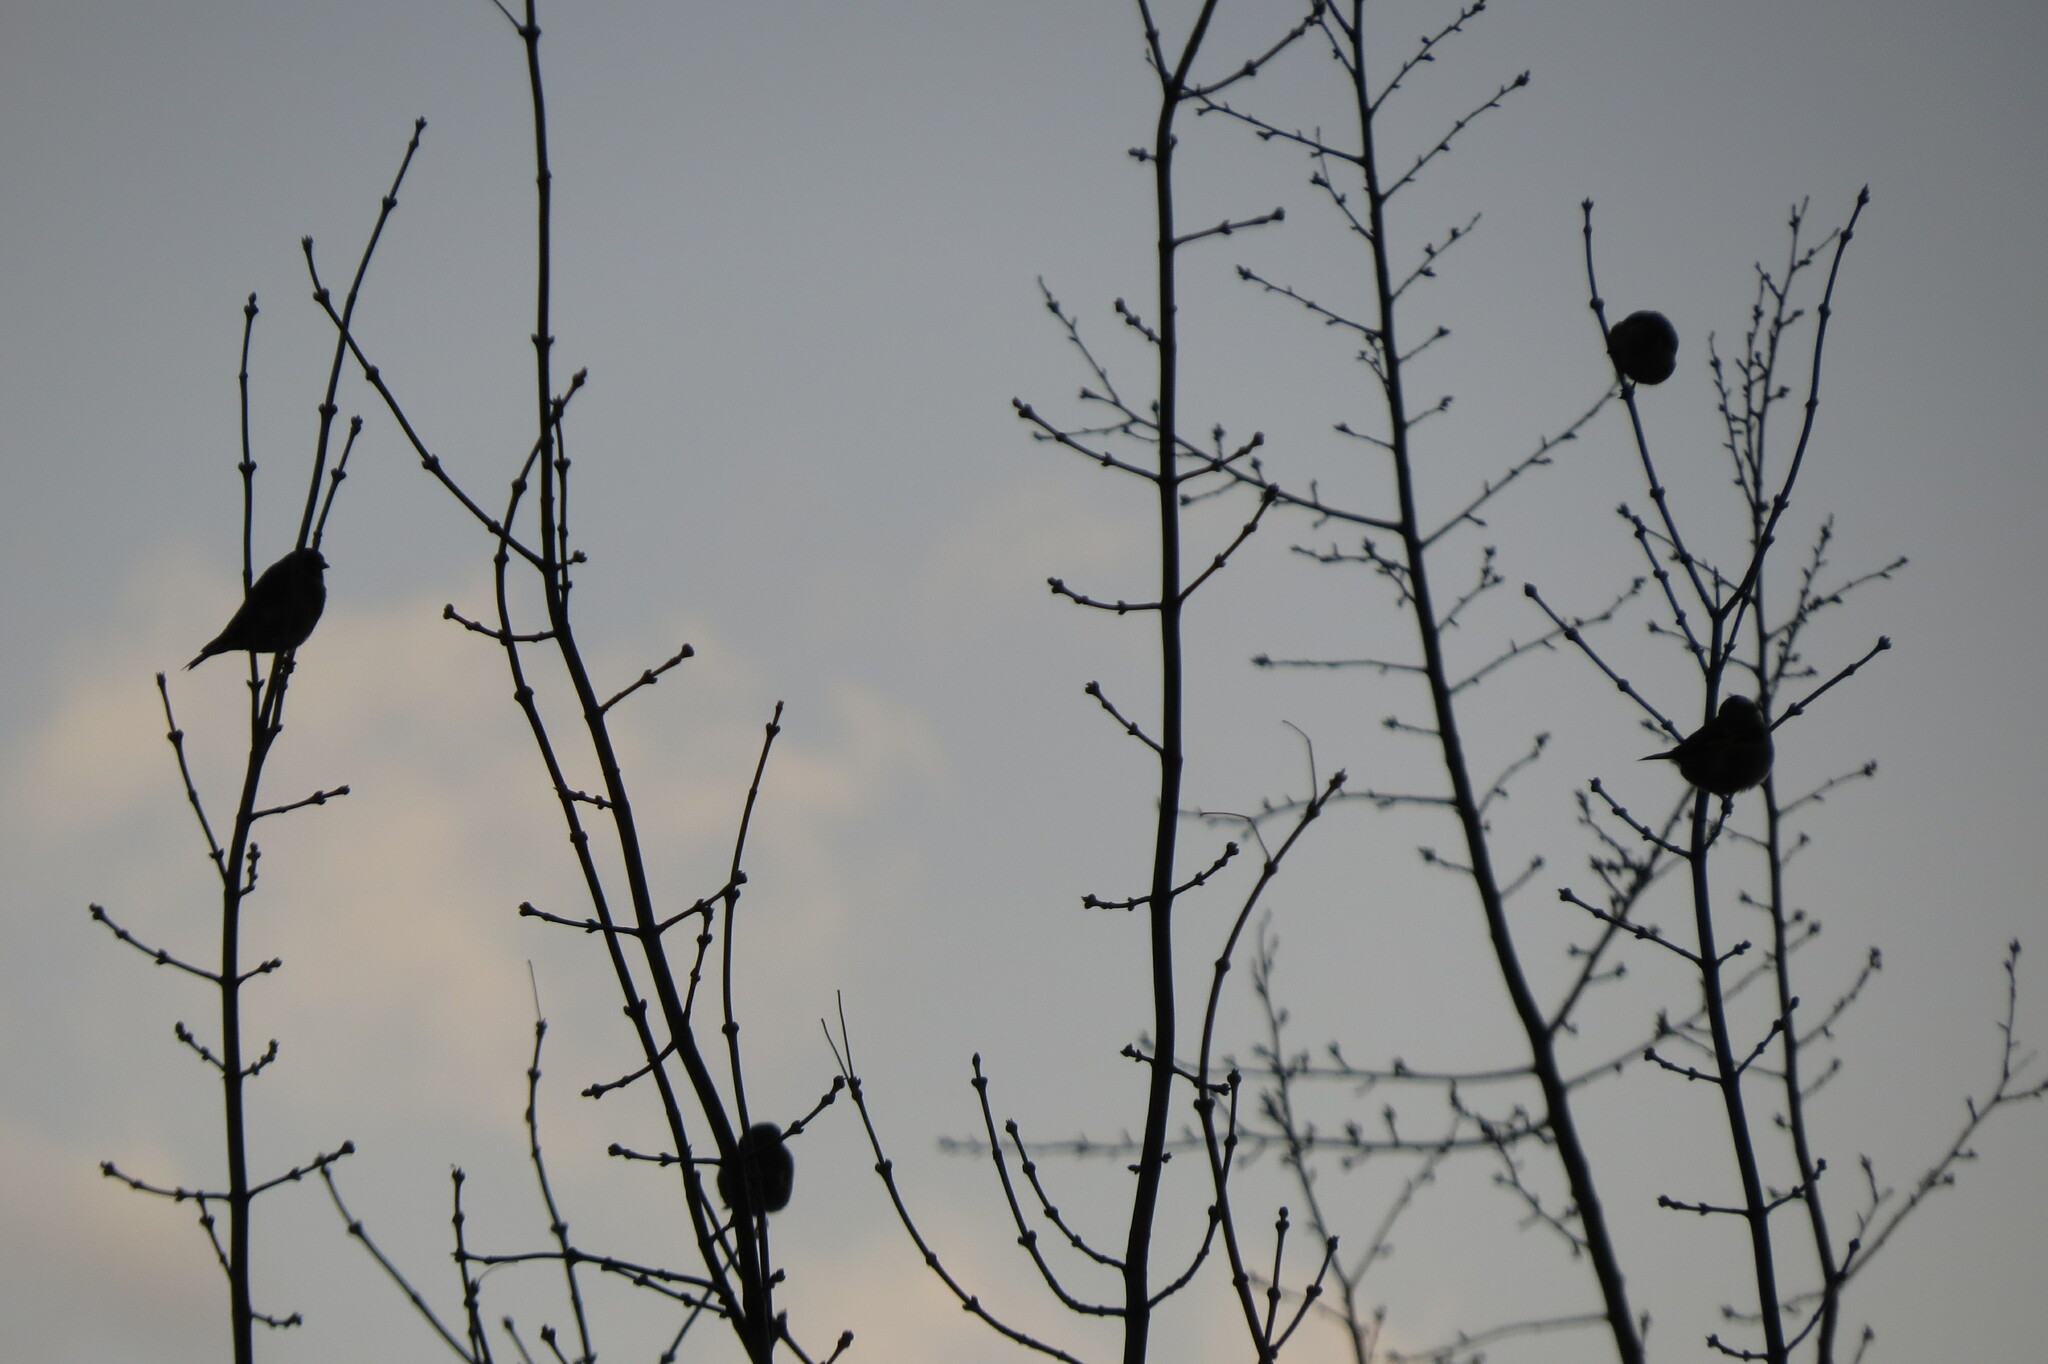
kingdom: Animalia
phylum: Chordata
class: Aves
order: Passeriformes
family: Fringillidae
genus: Carduelis
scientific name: Carduelis carduelis
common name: European goldfinch
